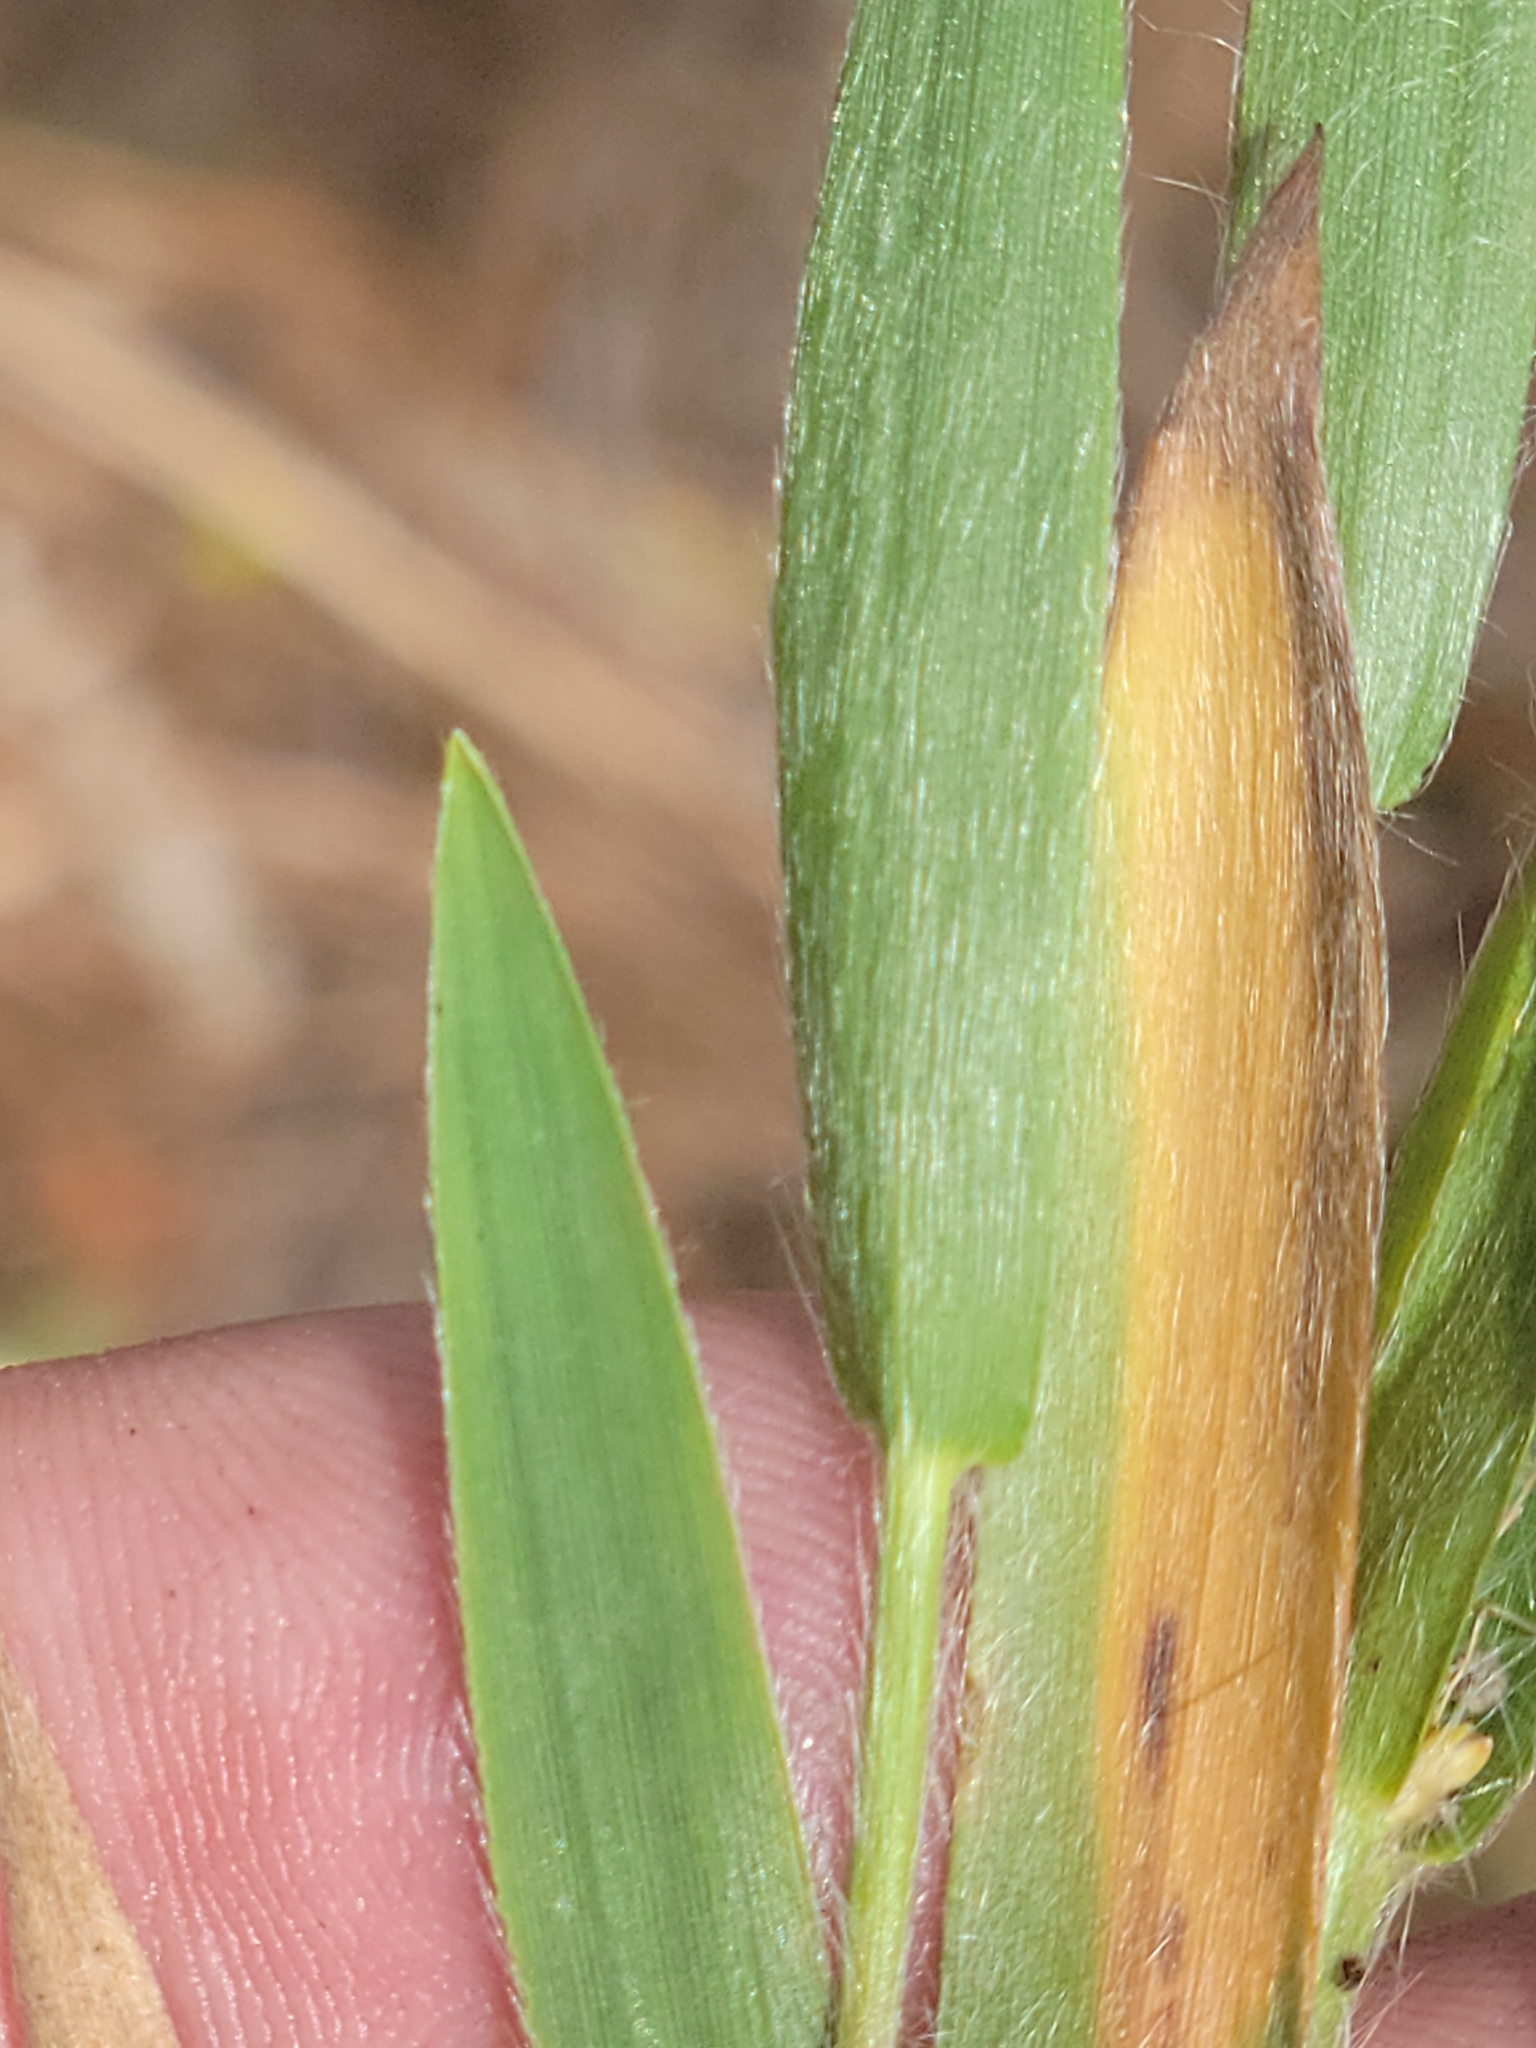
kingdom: Plantae
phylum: Tracheophyta
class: Liliopsida
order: Poales
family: Poaceae
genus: Dichanthelium
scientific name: Dichanthelium commonsianum
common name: Commons' panicgrass
